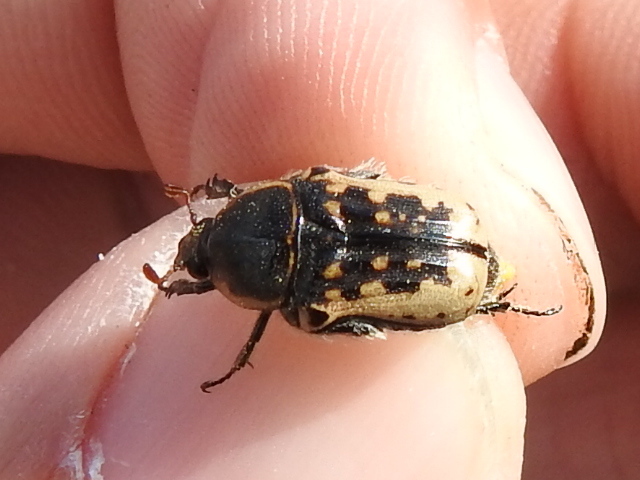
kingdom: Animalia
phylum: Arthropoda
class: Insecta
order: Coleoptera
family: Scarabaeidae
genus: Euphoria
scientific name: Euphoria kernii
